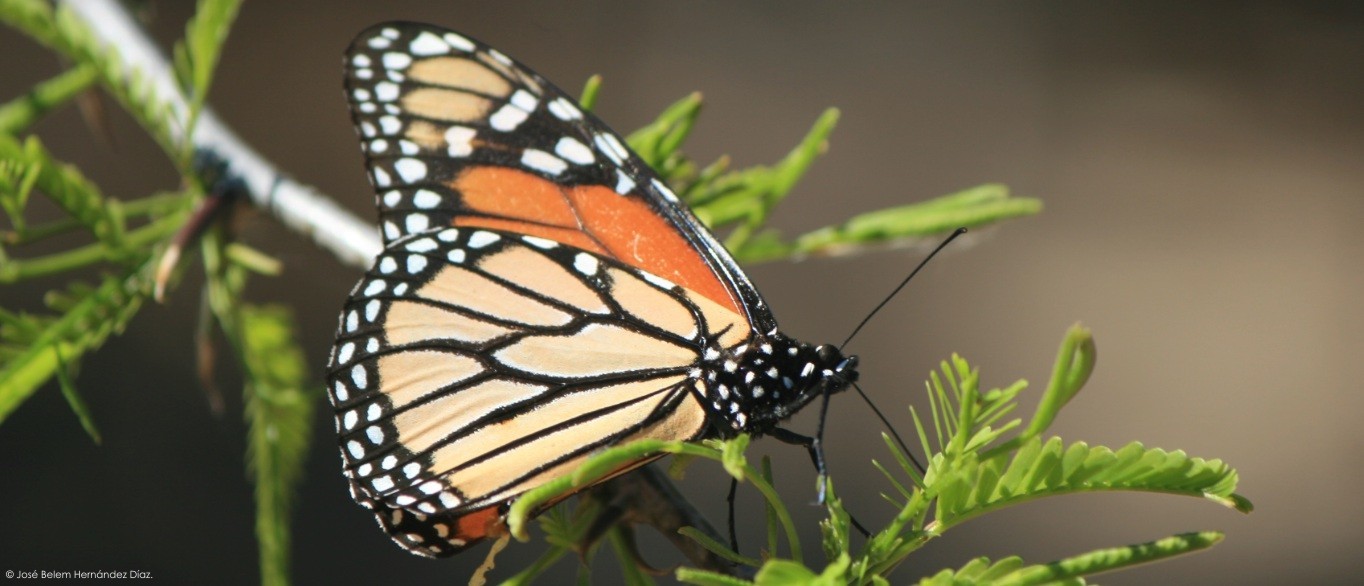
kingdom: Animalia
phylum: Arthropoda
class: Insecta
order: Lepidoptera
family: Nymphalidae
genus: Danaus
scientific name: Danaus plexippus
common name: Monarch
